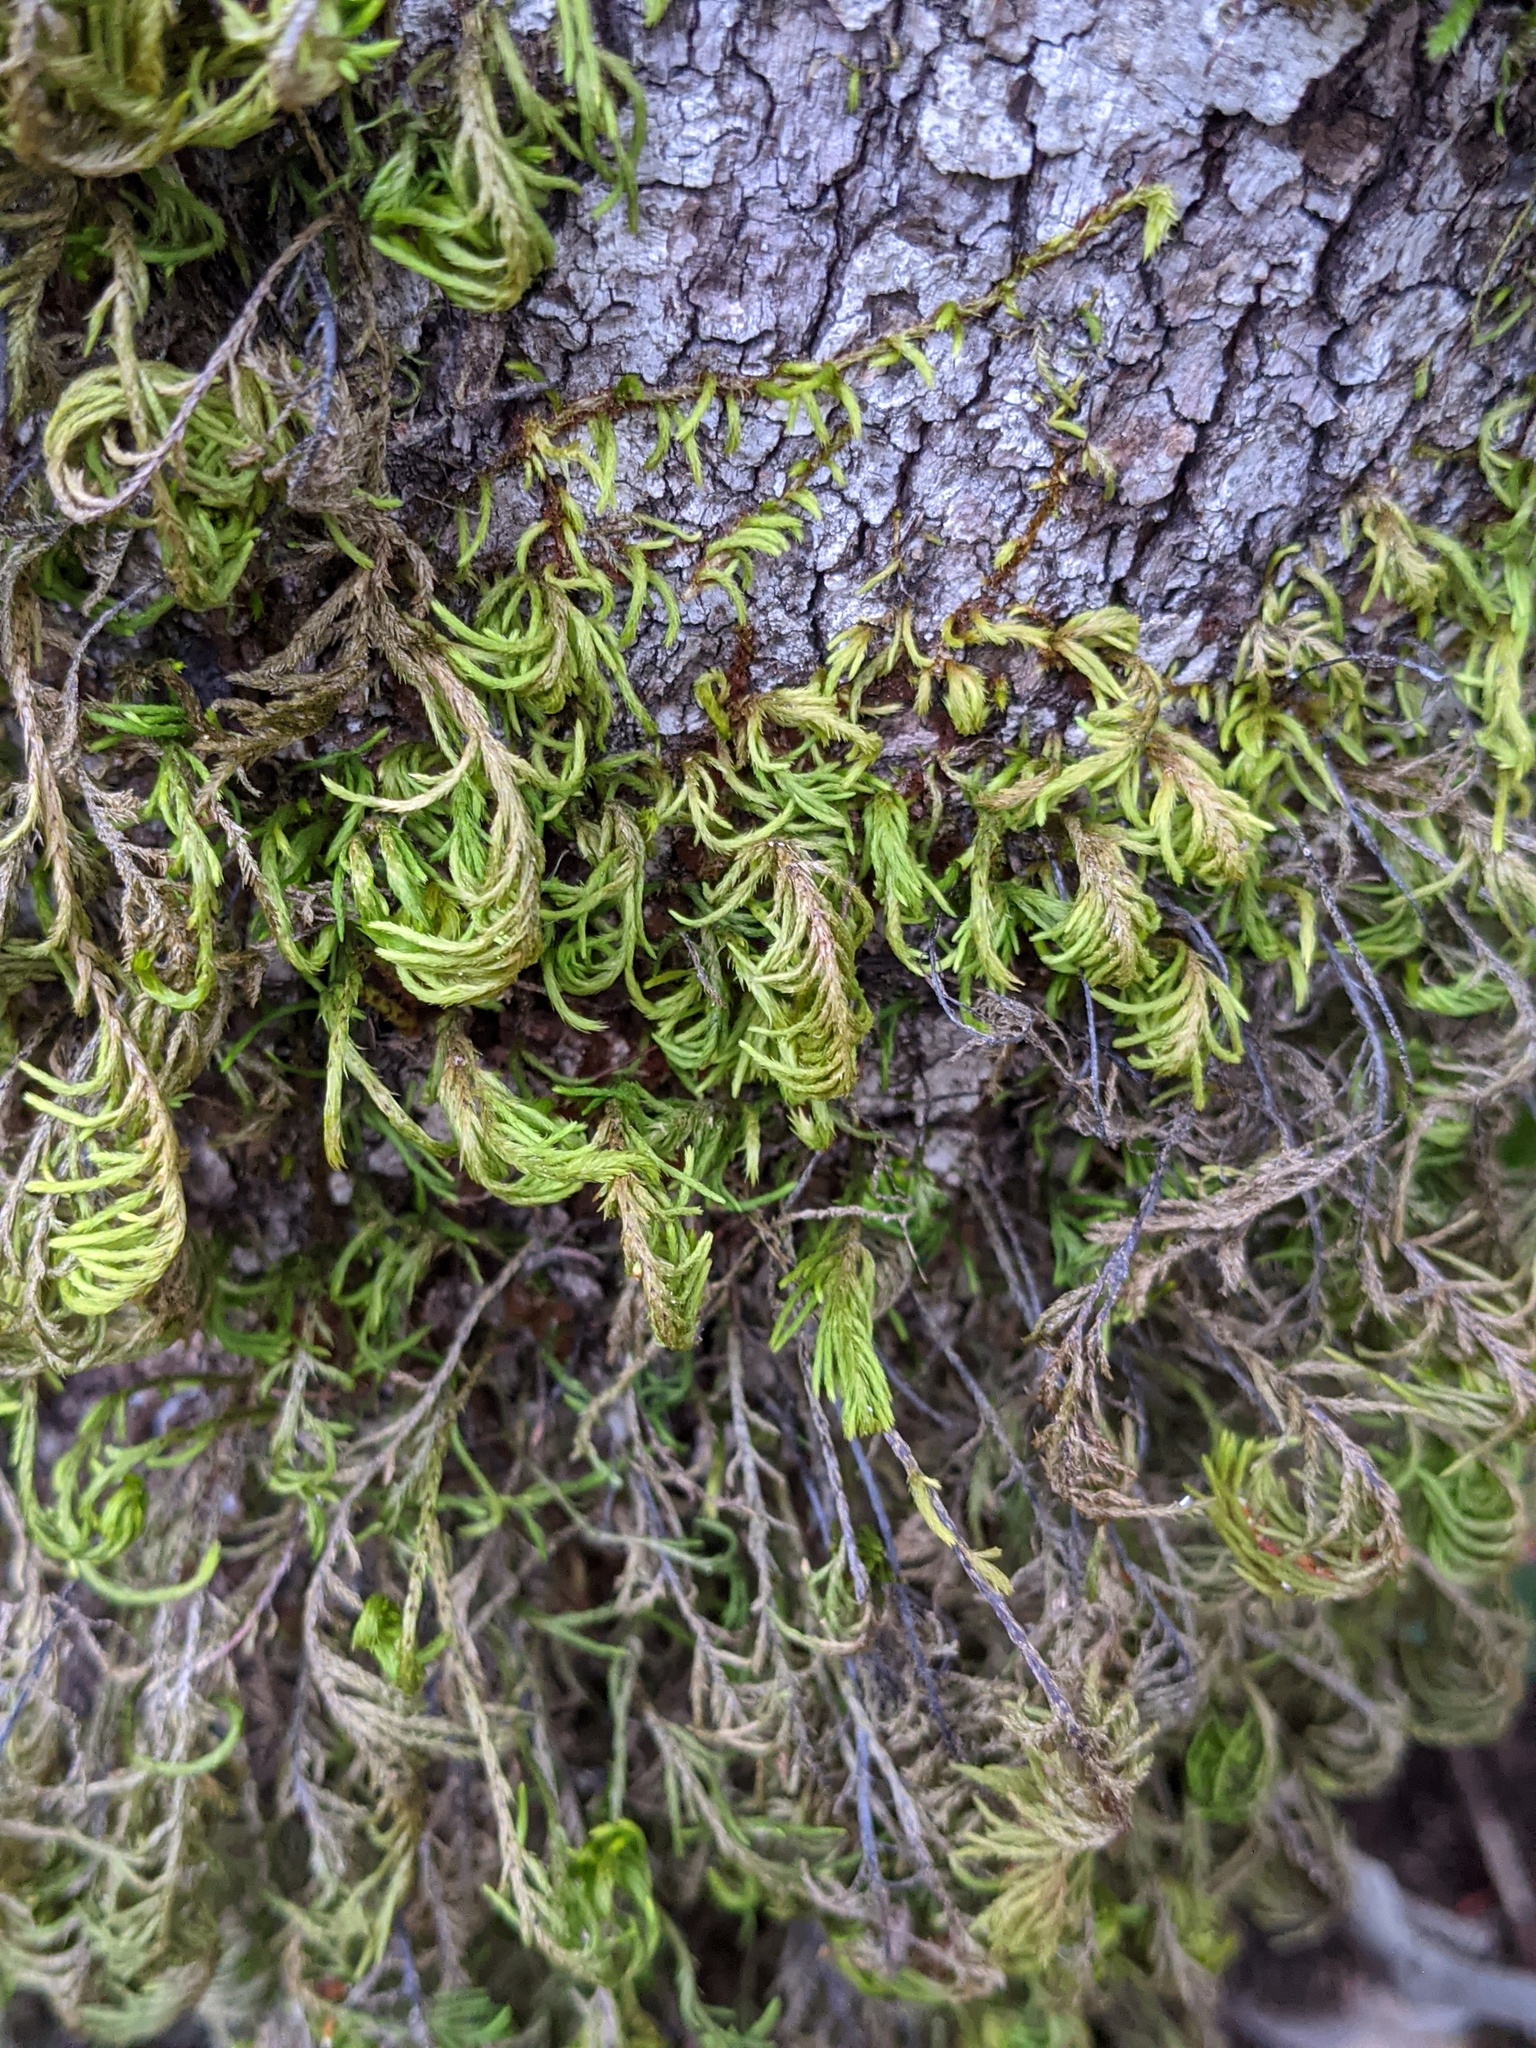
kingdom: Plantae
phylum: Bryophyta
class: Bryopsida
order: Hypnales
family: Cryphaeaceae
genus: Dendroalsia
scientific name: Dendroalsia abietina
